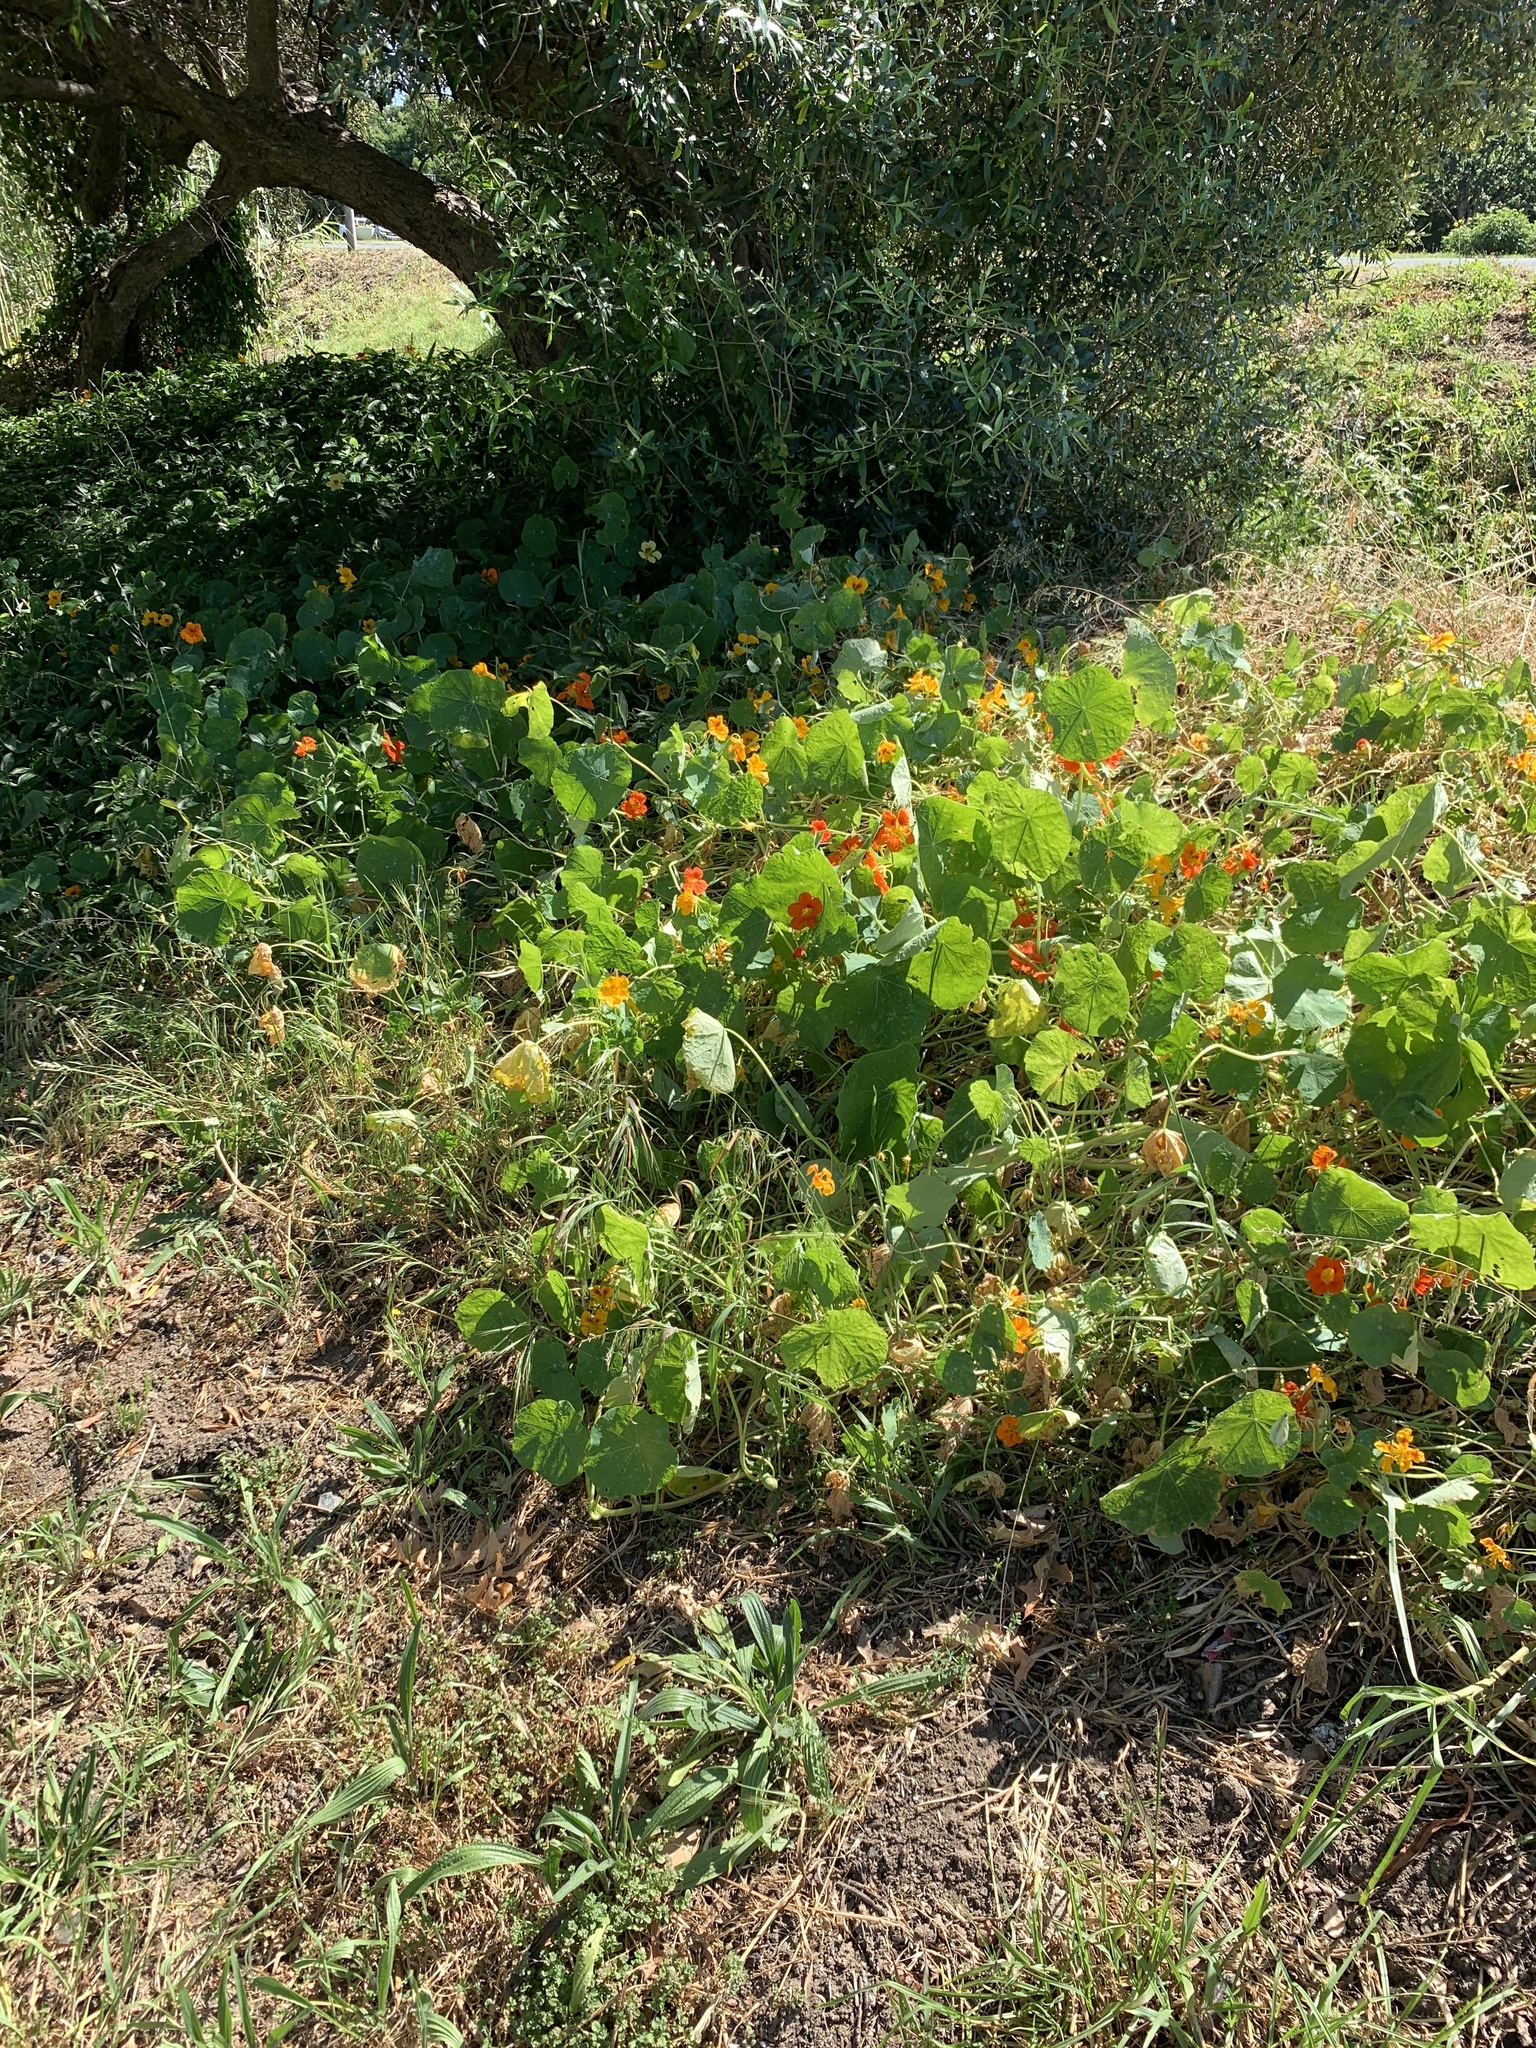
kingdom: Plantae
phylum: Tracheophyta
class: Magnoliopsida
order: Brassicales
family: Tropaeolaceae
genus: Tropaeolum
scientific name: Tropaeolum majus
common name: Nasturtium
